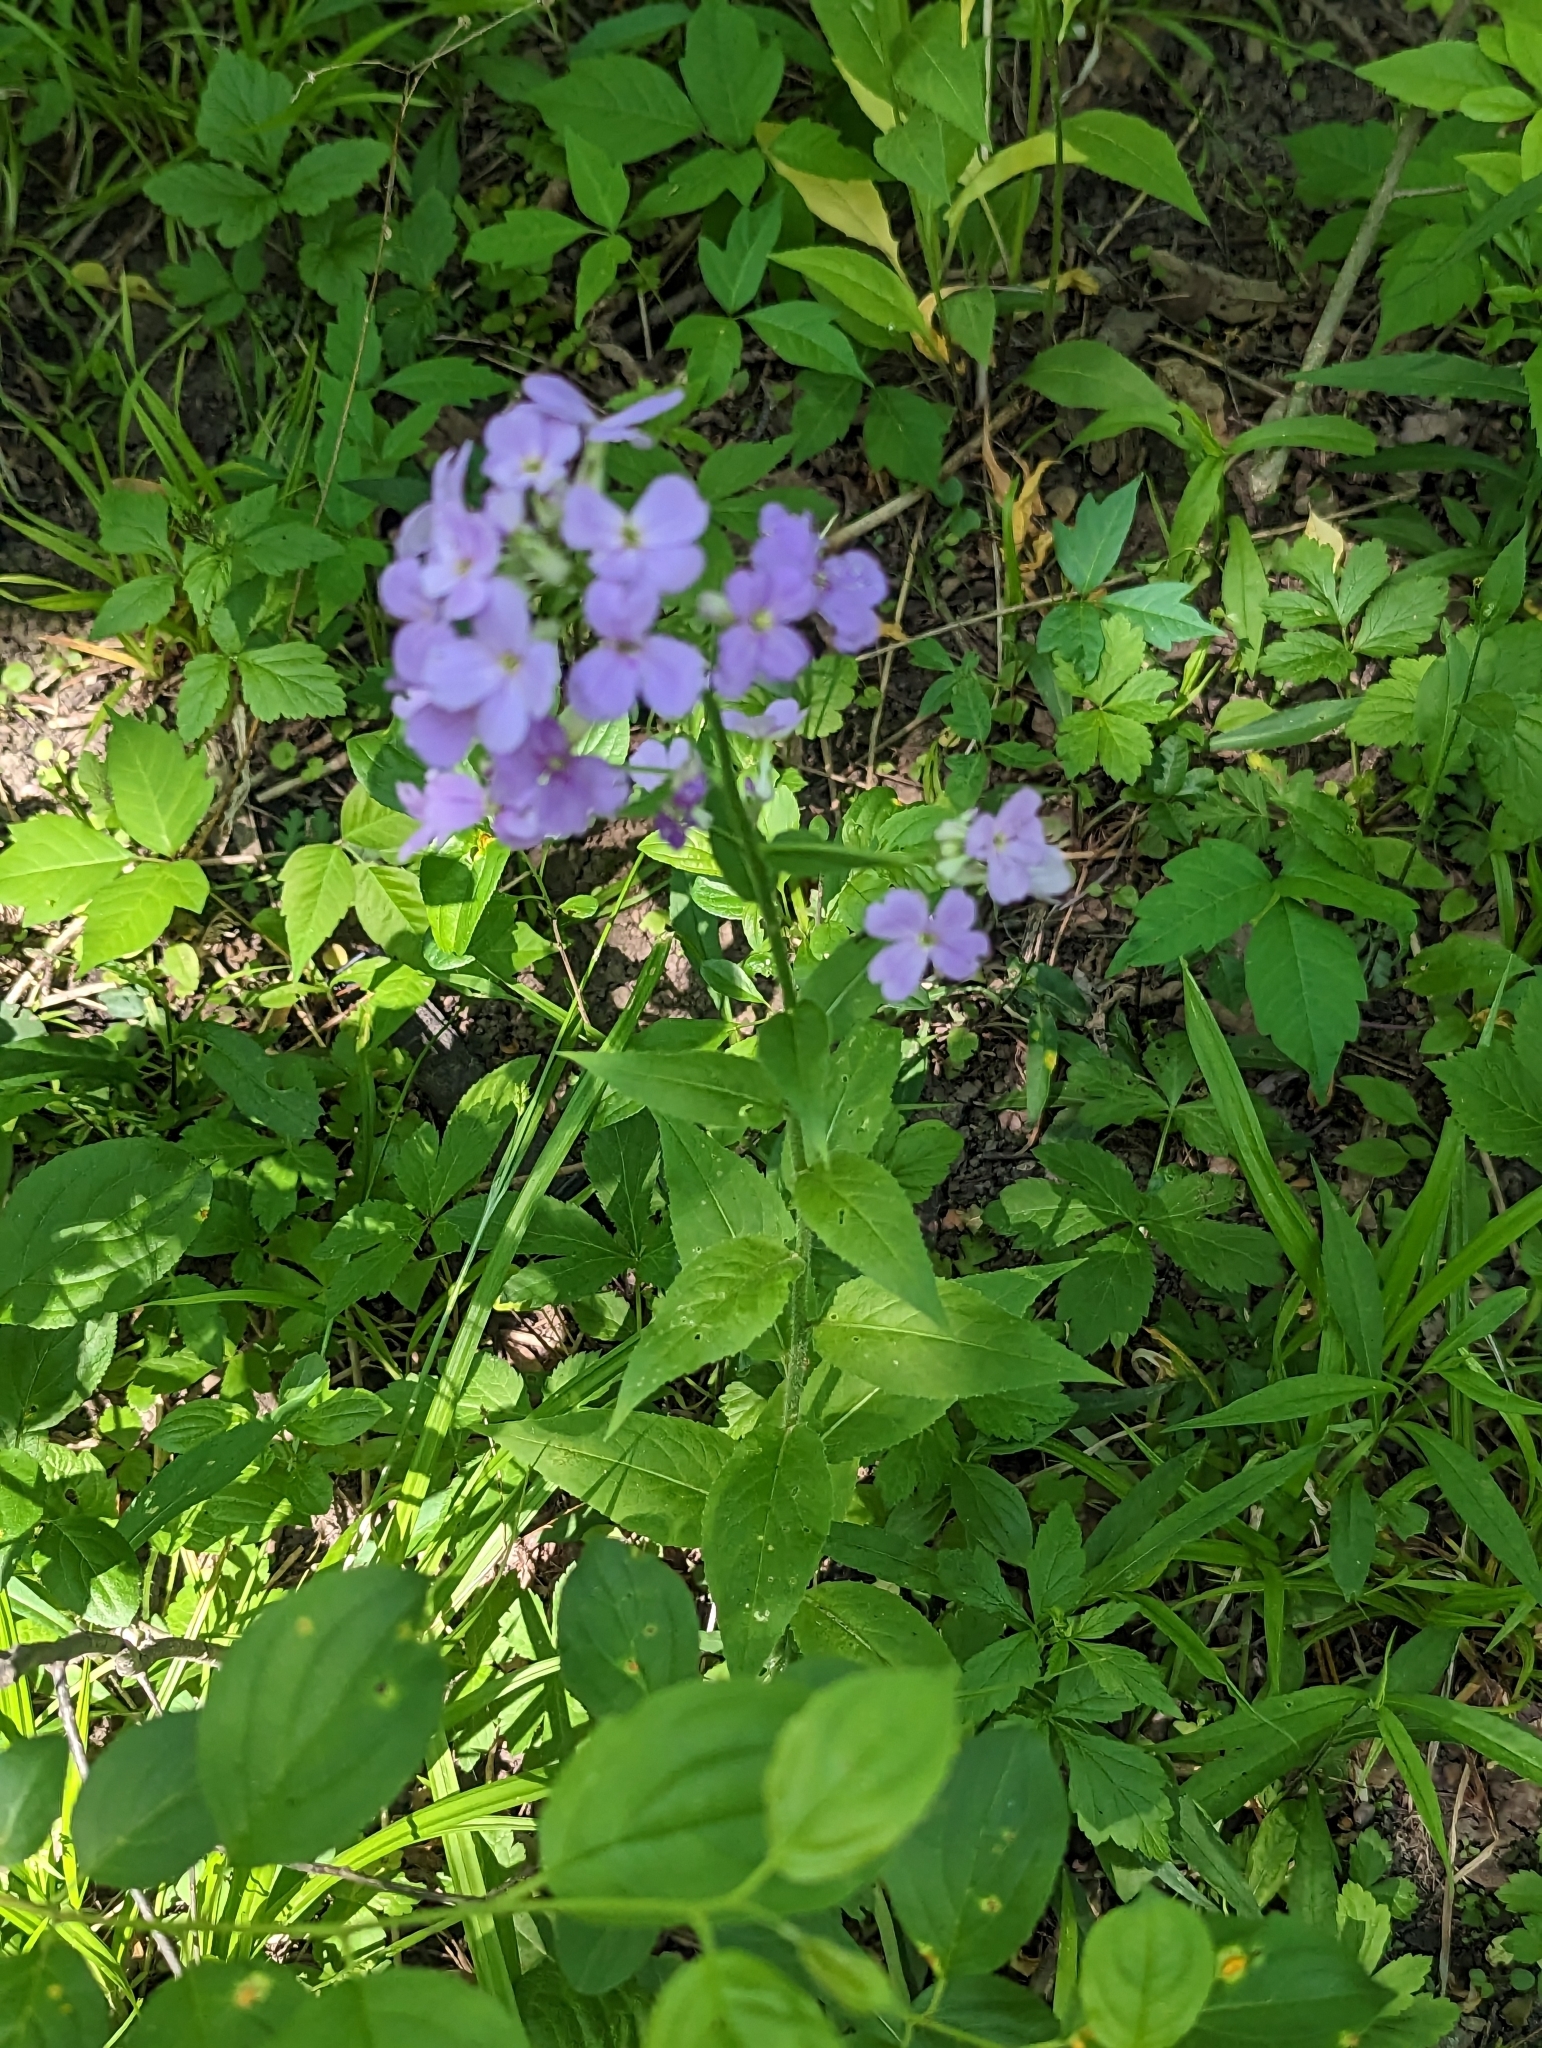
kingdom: Plantae
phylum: Tracheophyta
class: Magnoliopsida
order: Brassicales
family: Brassicaceae
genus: Hesperis
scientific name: Hesperis matronalis
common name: Dame's-violet
